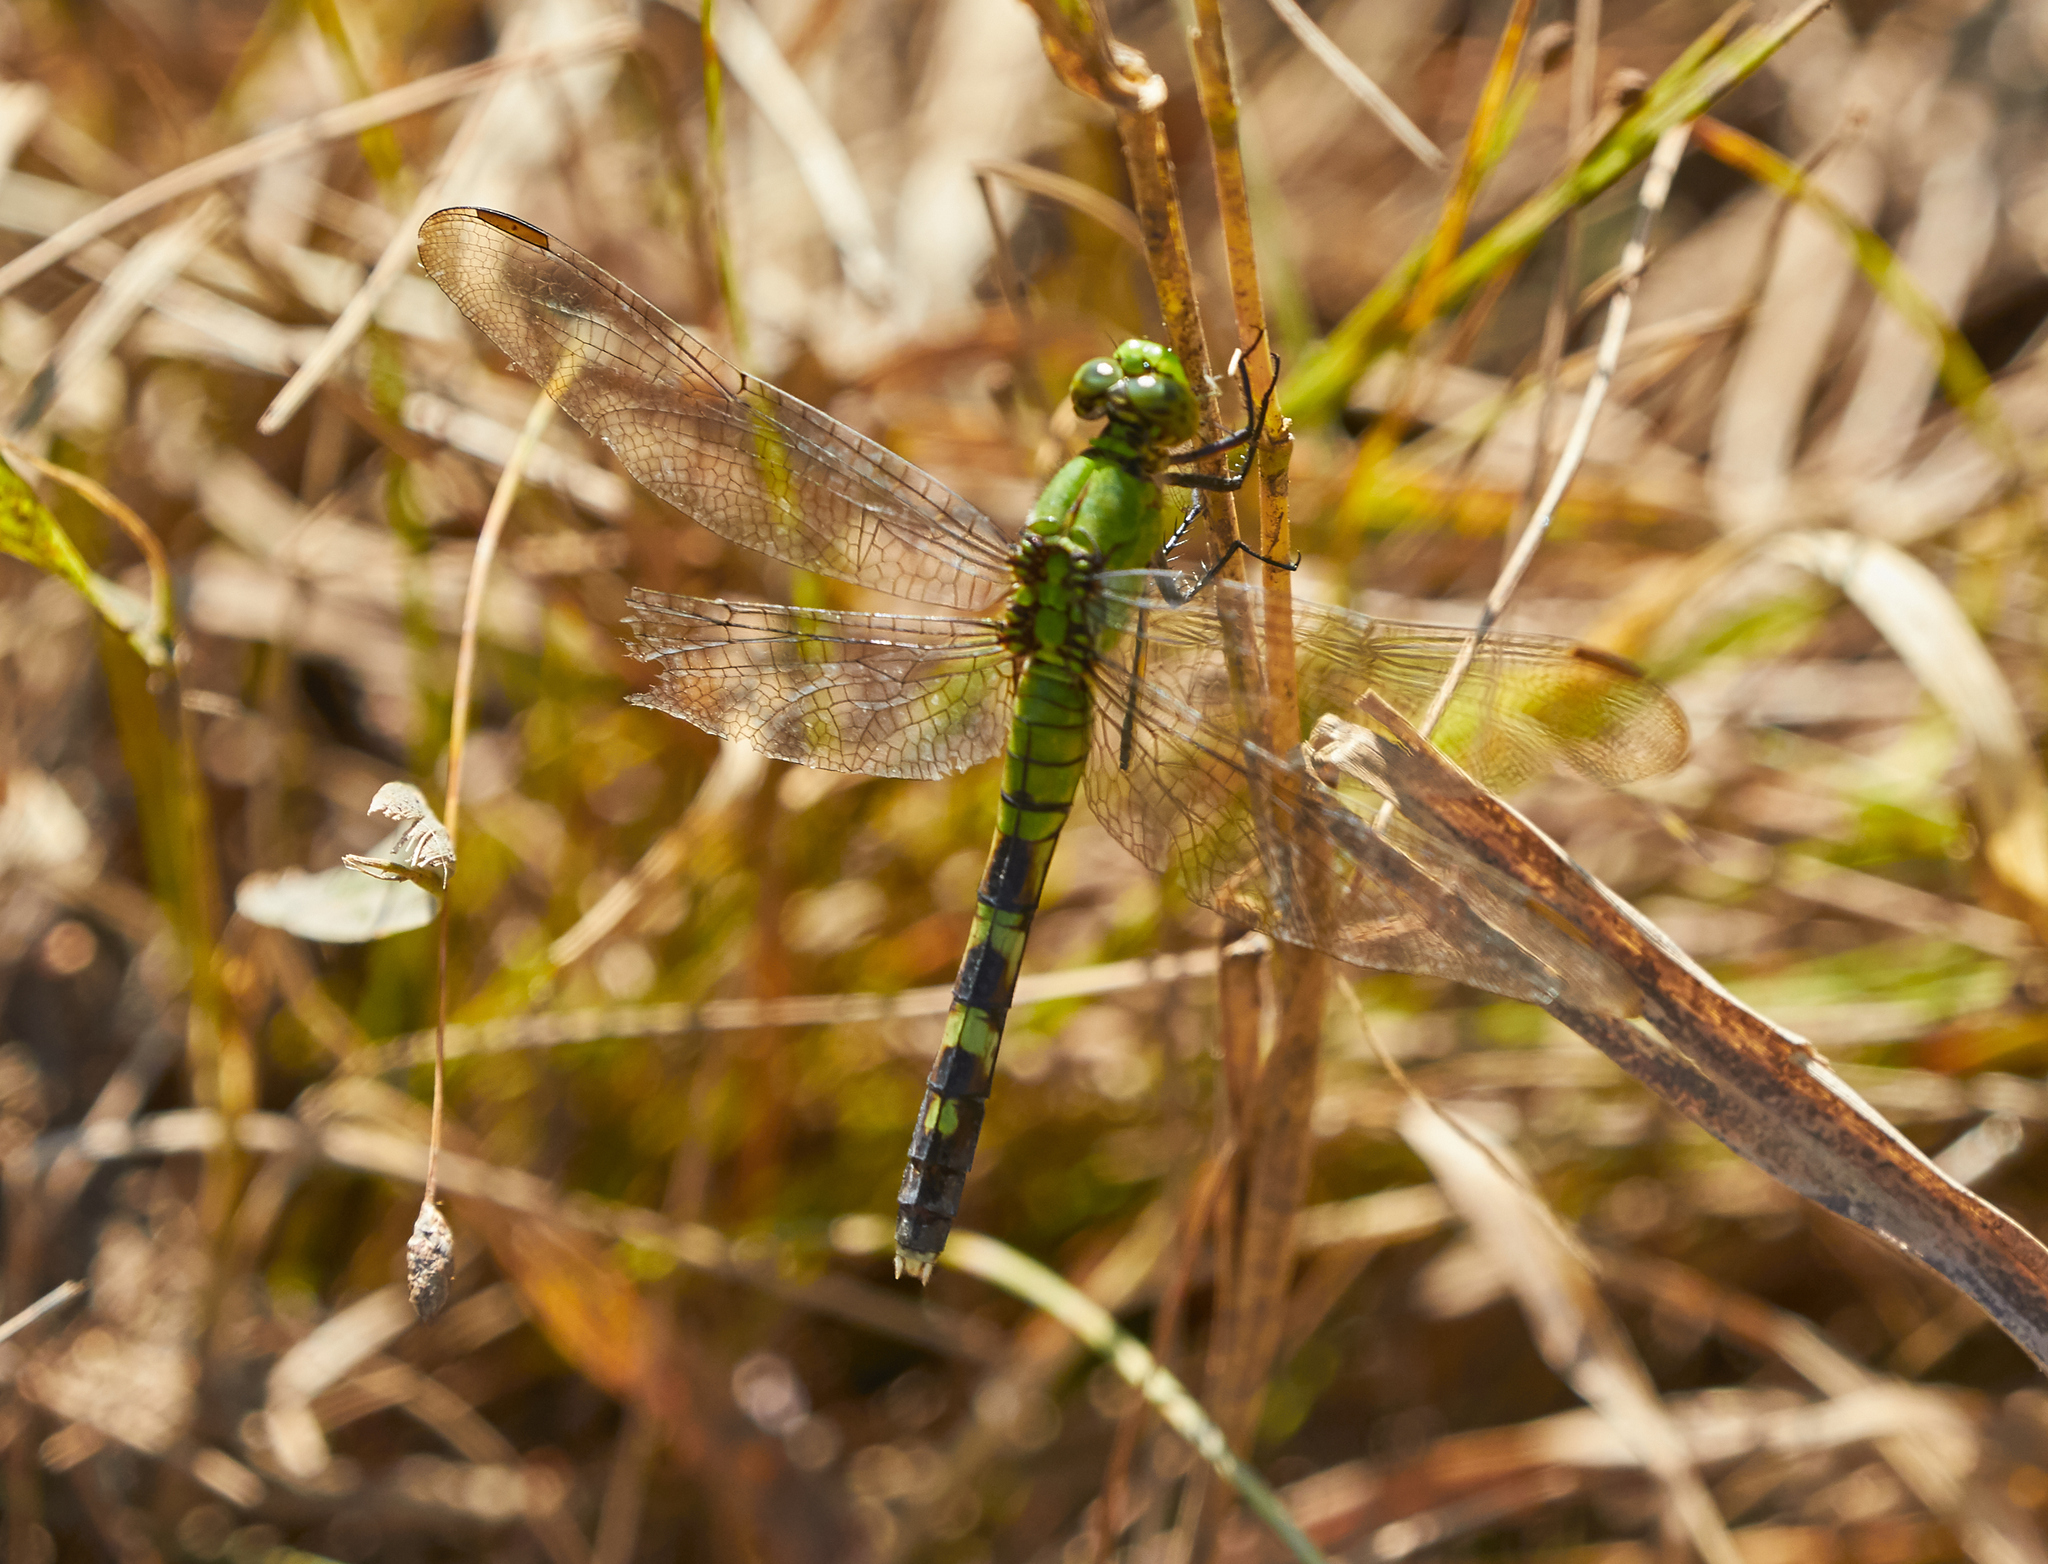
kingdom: Animalia
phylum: Arthropoda
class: Insecta
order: Odonata
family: Libellulidae
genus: Erythemis
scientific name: Erythemis simplicicollis
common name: Eastern pondhawk
